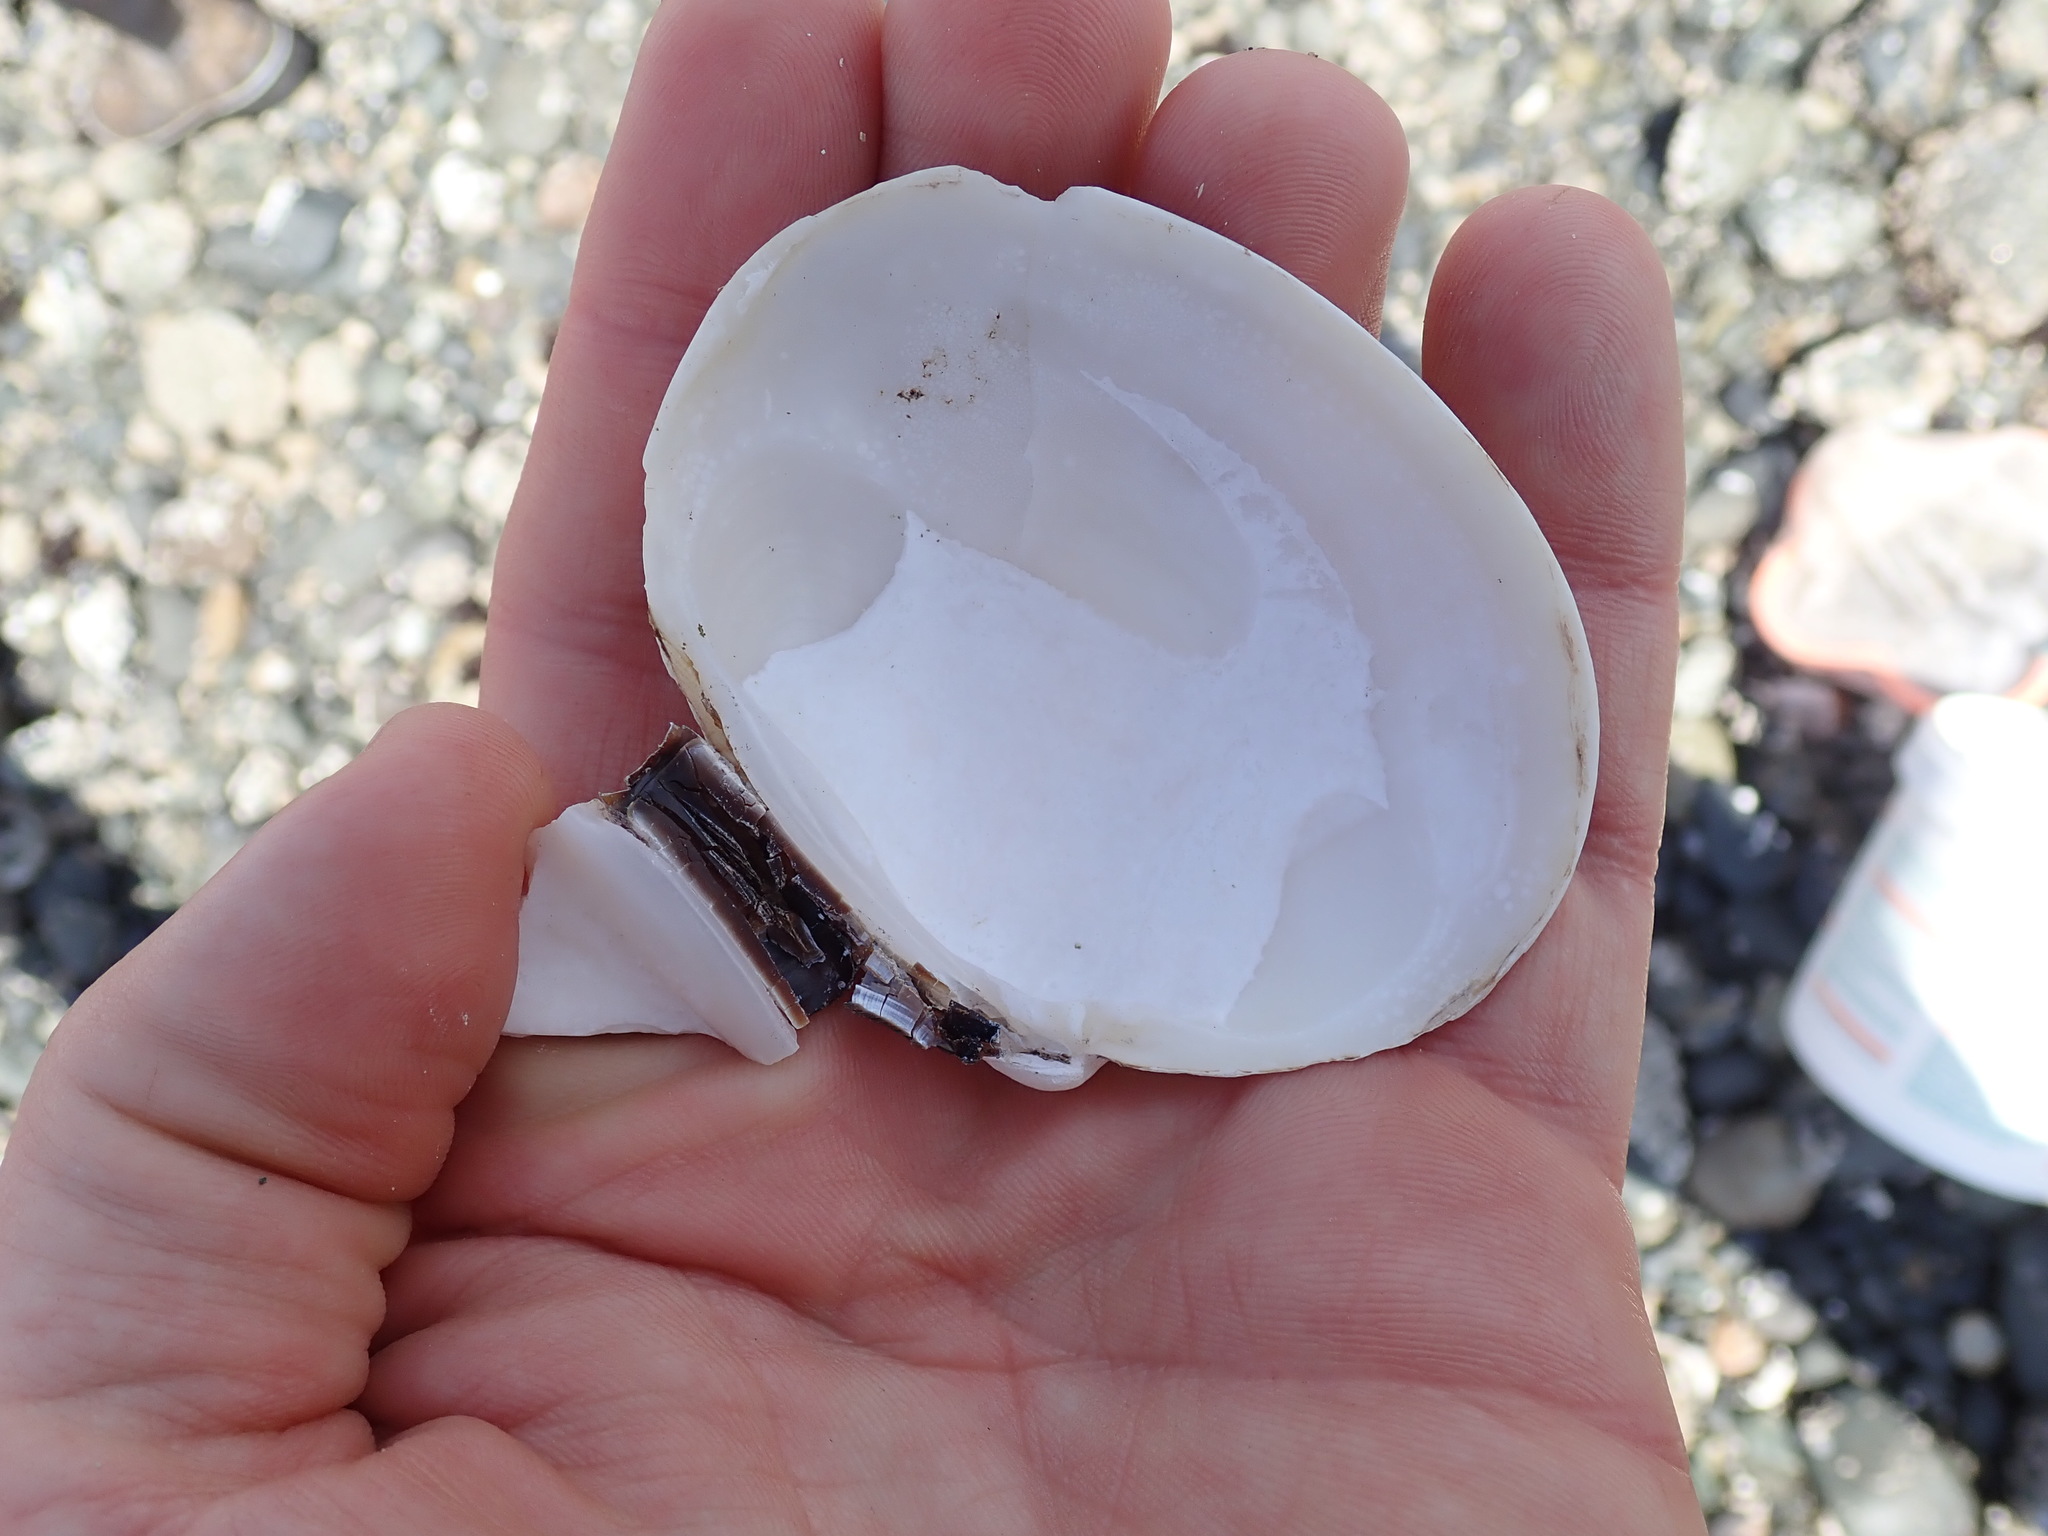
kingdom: Animalia
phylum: Mollusca
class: Bivalvia
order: Venerida
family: Veneridae
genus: Saxidomus
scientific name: Saxidomus gigantea
